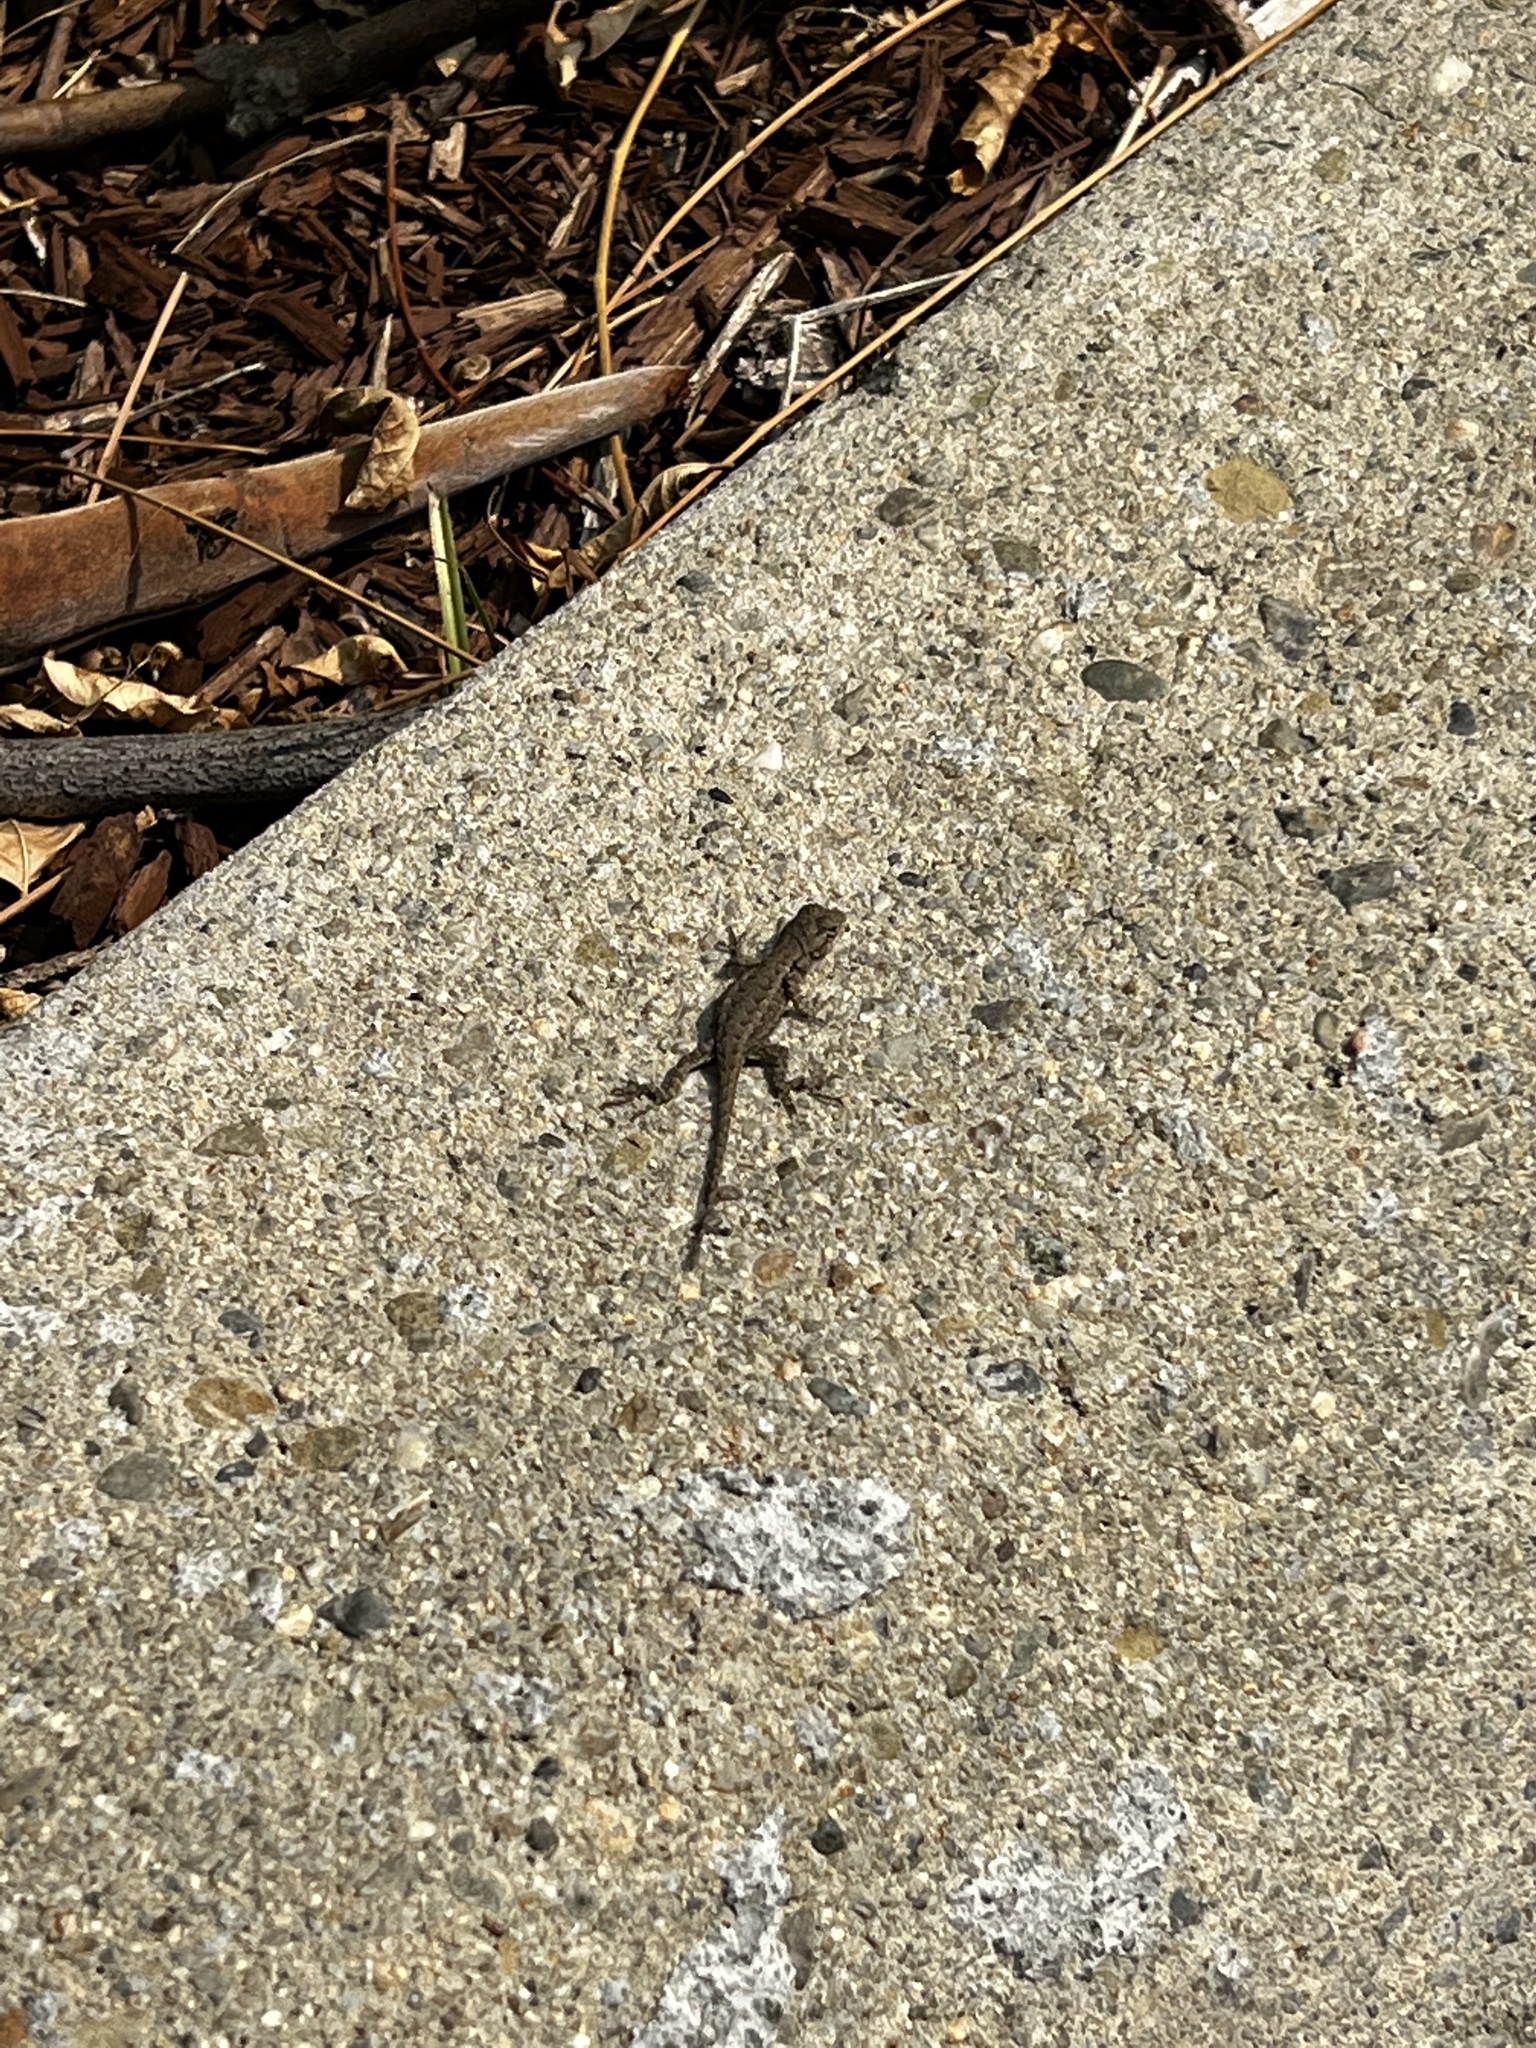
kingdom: Animalia
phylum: Chordata
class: Squamata
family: Phrynosomatidae
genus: Sceloporus
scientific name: Sceloporus occidentalis
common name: Western fence lizard
